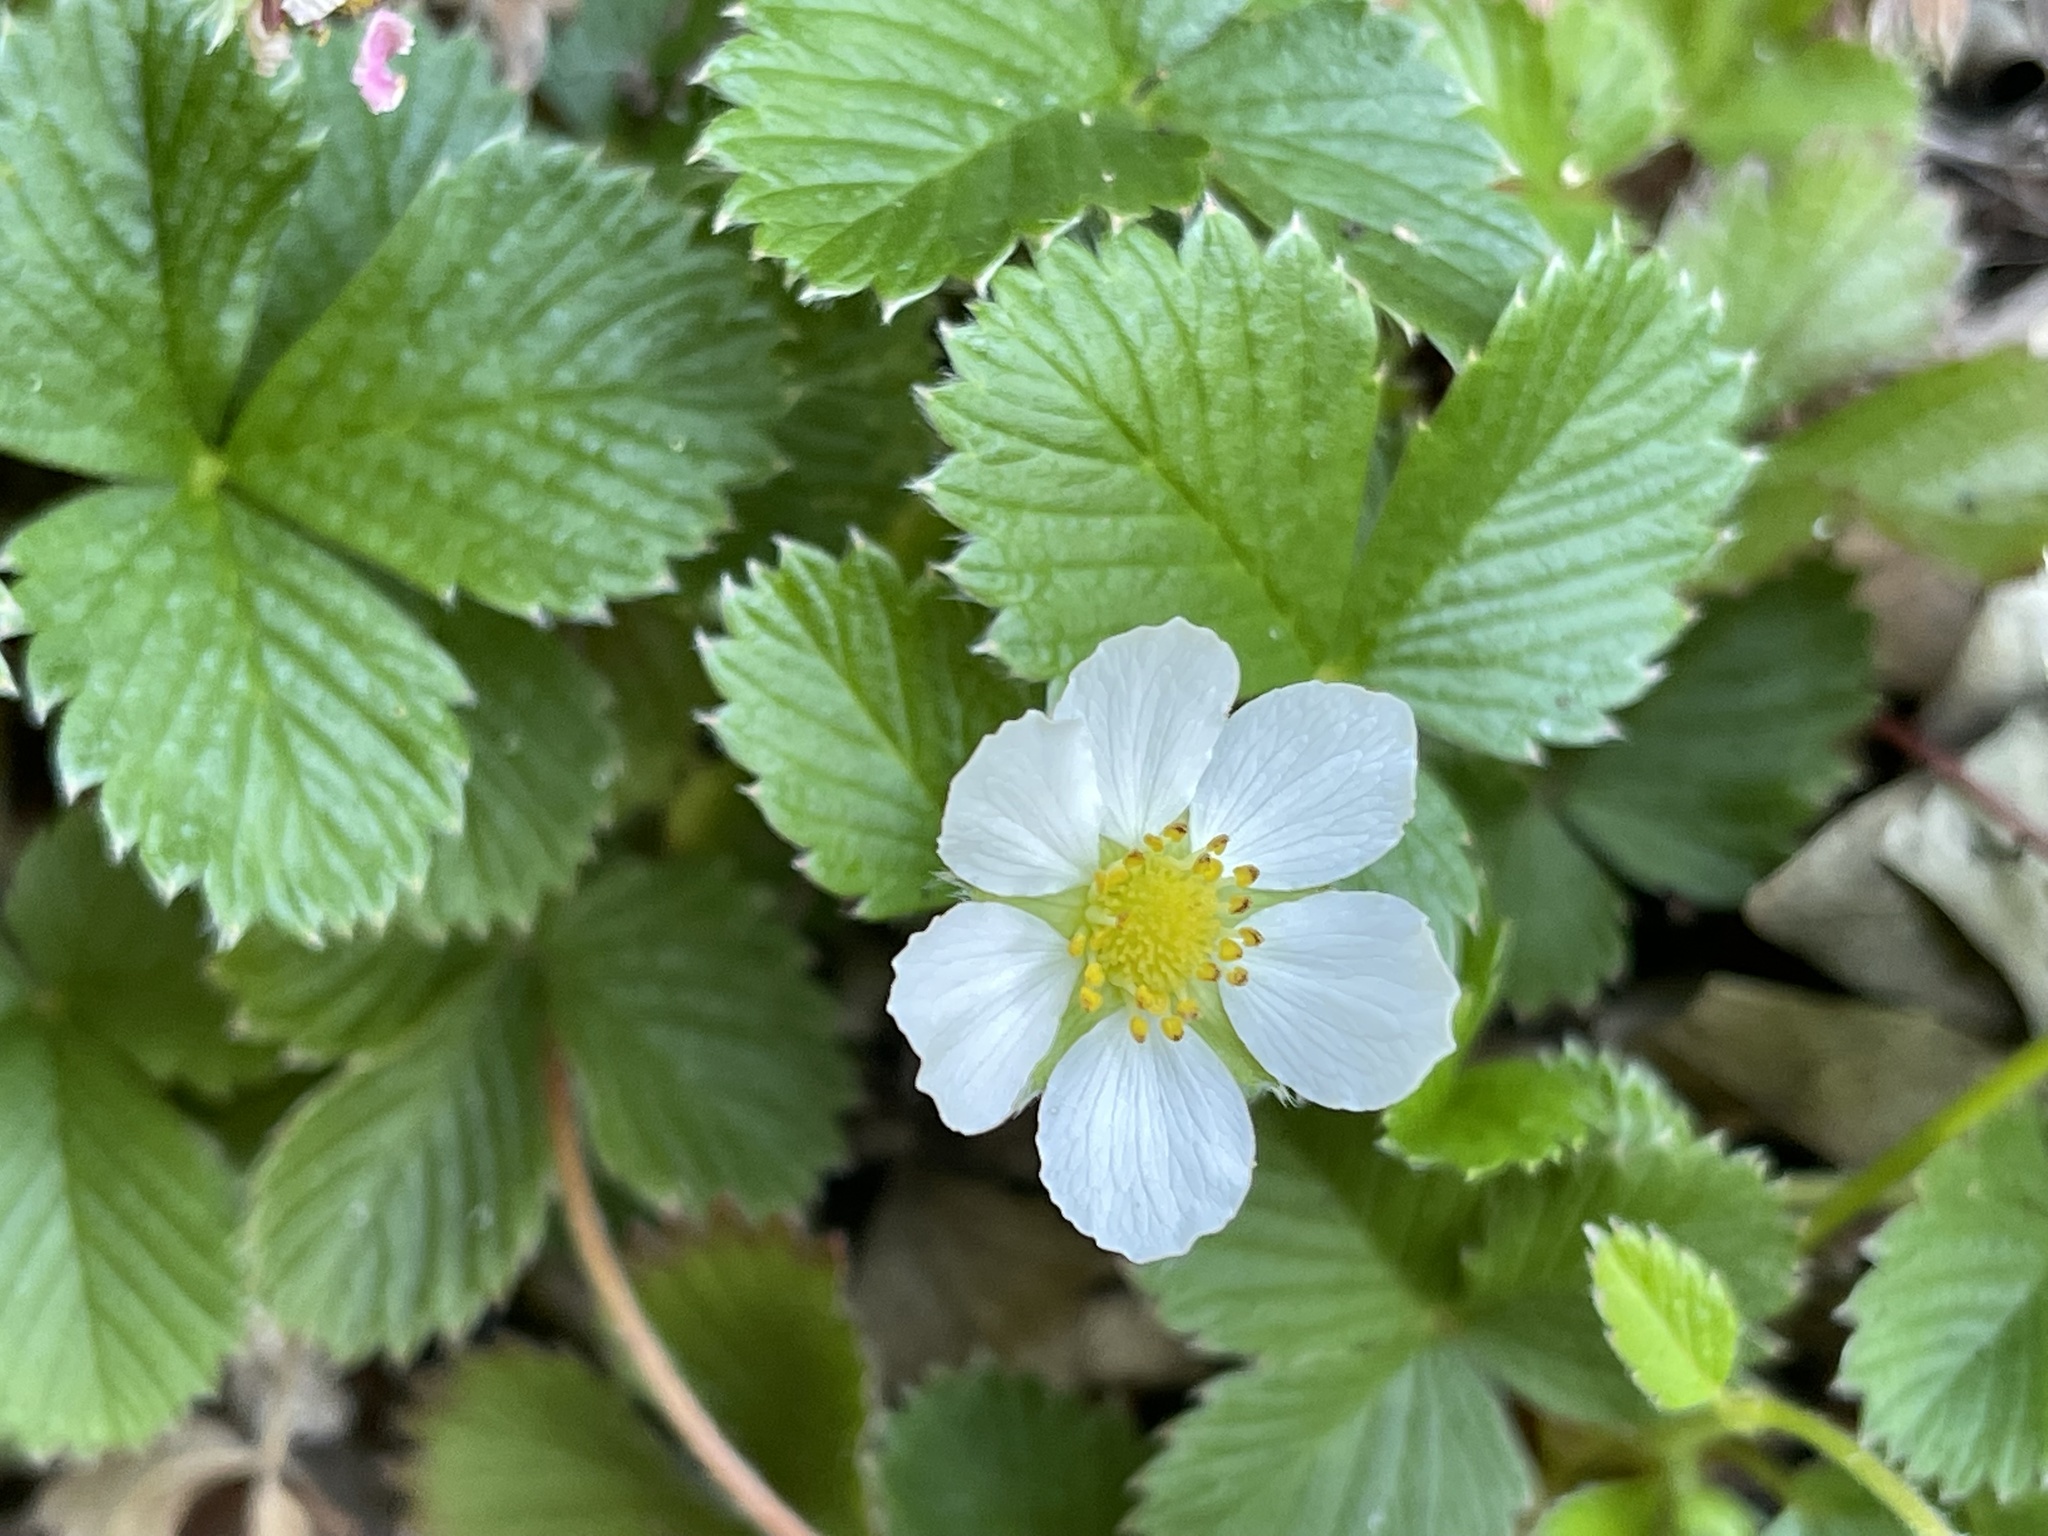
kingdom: Plantae
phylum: Tracheophyta
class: Magnoliopsida
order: Rosales
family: Rosaceae
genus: Fragaria
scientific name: Fragaria vesca
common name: Wild strawberry
